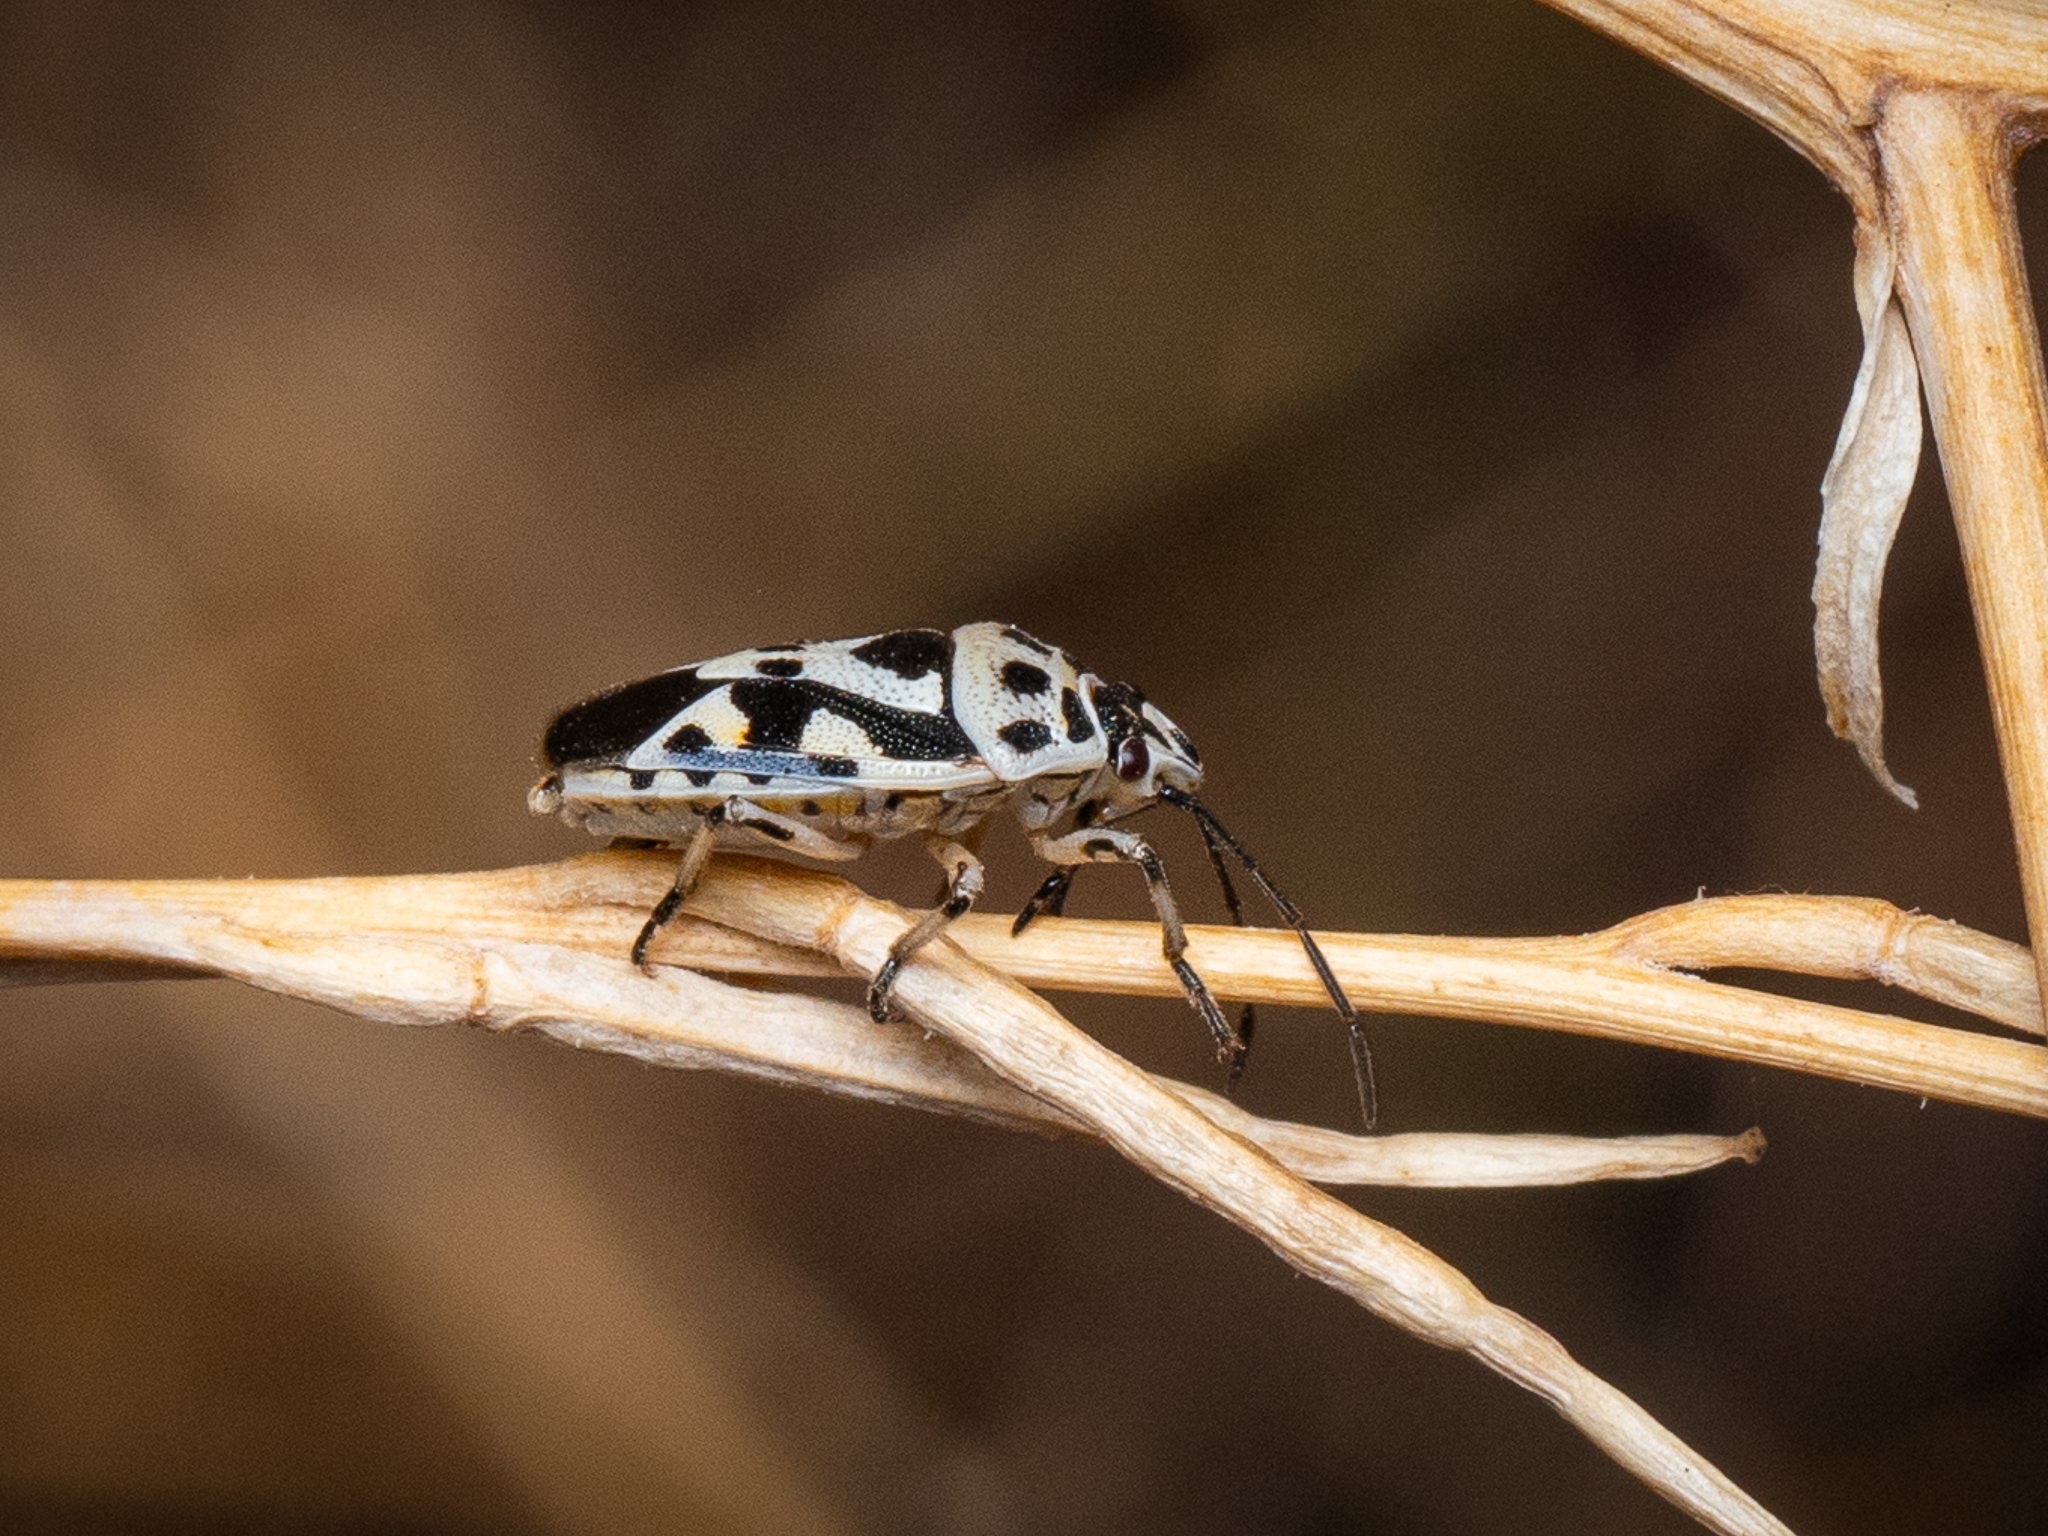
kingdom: Animalia
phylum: Arthropoda
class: Insecta
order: Hemiptera
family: Pentatomidae
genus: Eurydema
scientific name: Eurydema ornata
